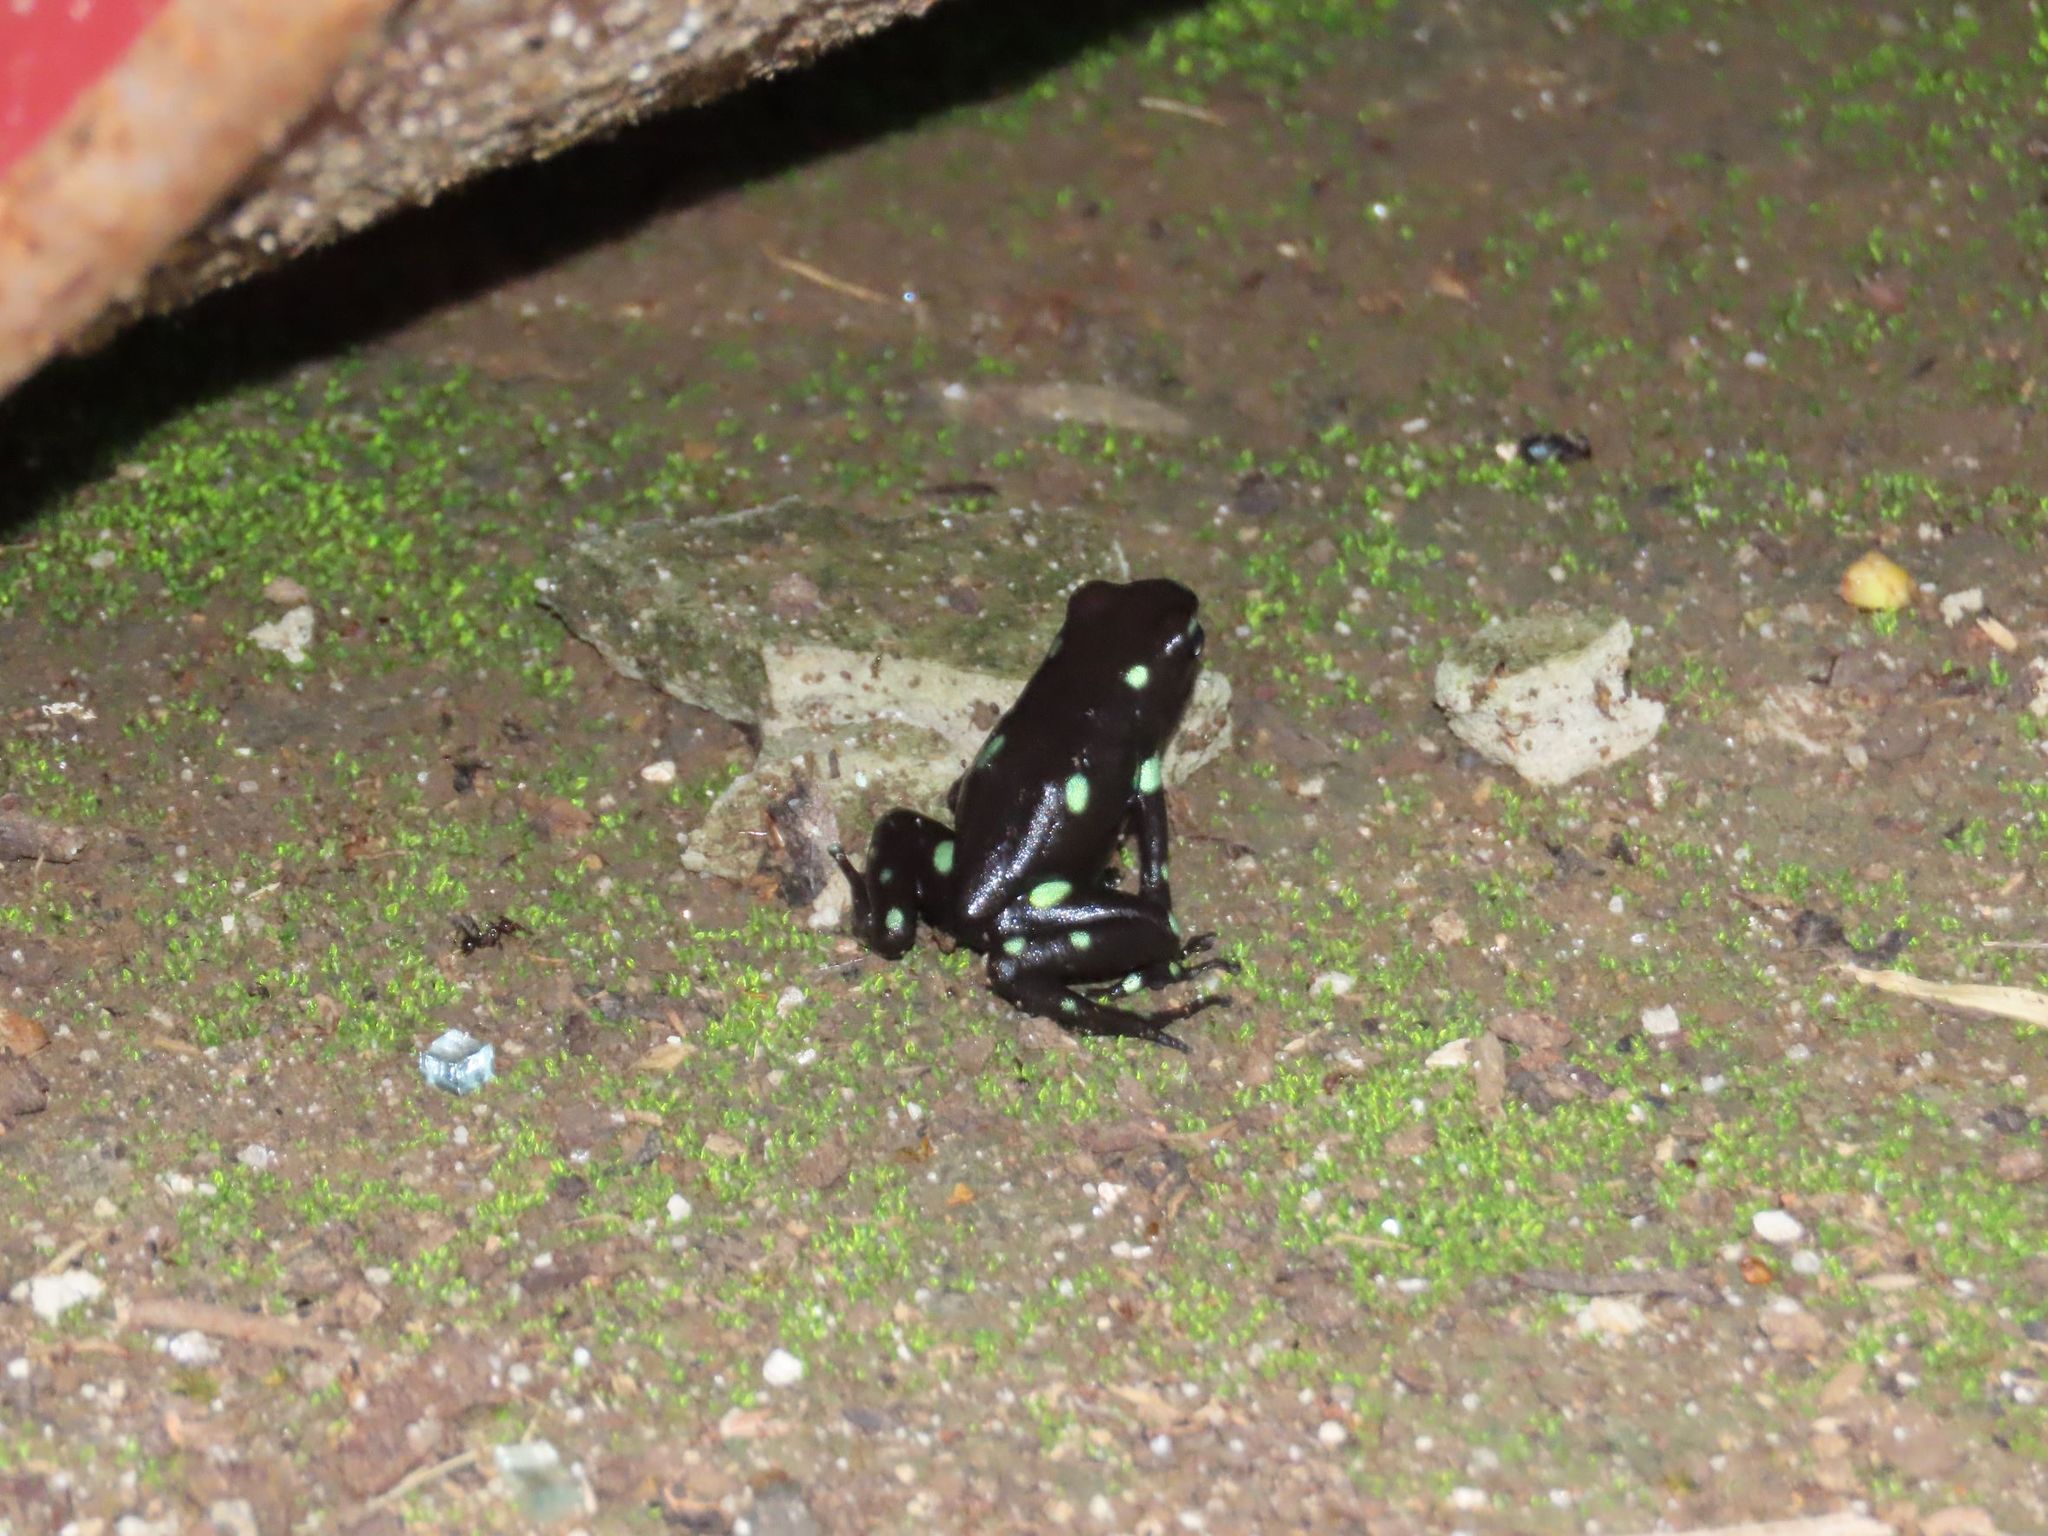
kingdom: Animalia
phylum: Chordata
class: Amphibia
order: Anura
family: Dendrobatidae
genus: Dendrobates
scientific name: Dendrobates auratus
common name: Green and black poison dart frog
